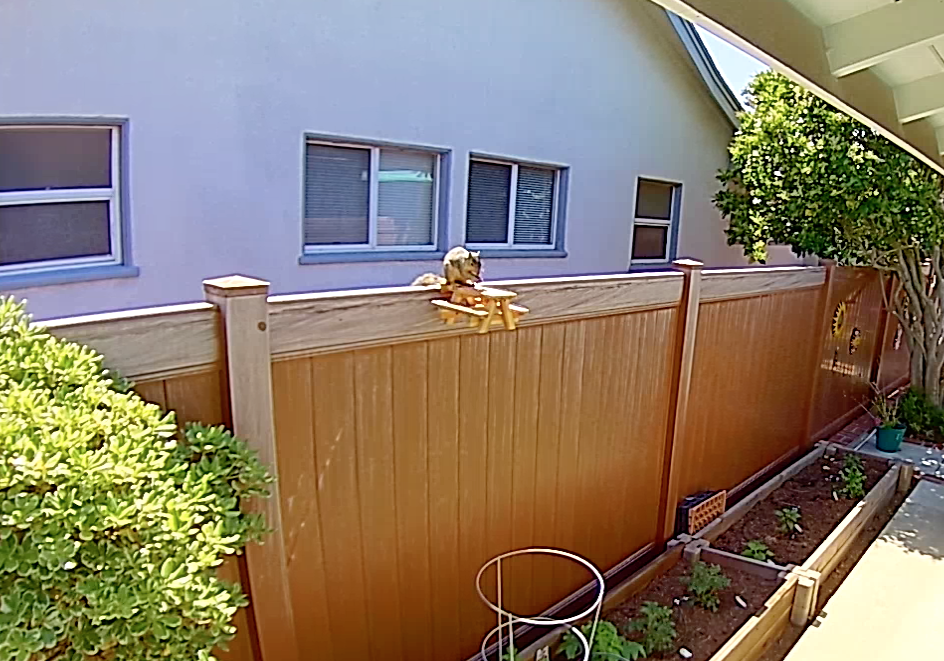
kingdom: Animalia
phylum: Chordata
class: Mammalia
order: Rodentia
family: Sciuridae
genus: Sciurus
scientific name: Sciurus niger
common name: Fox squirrel
